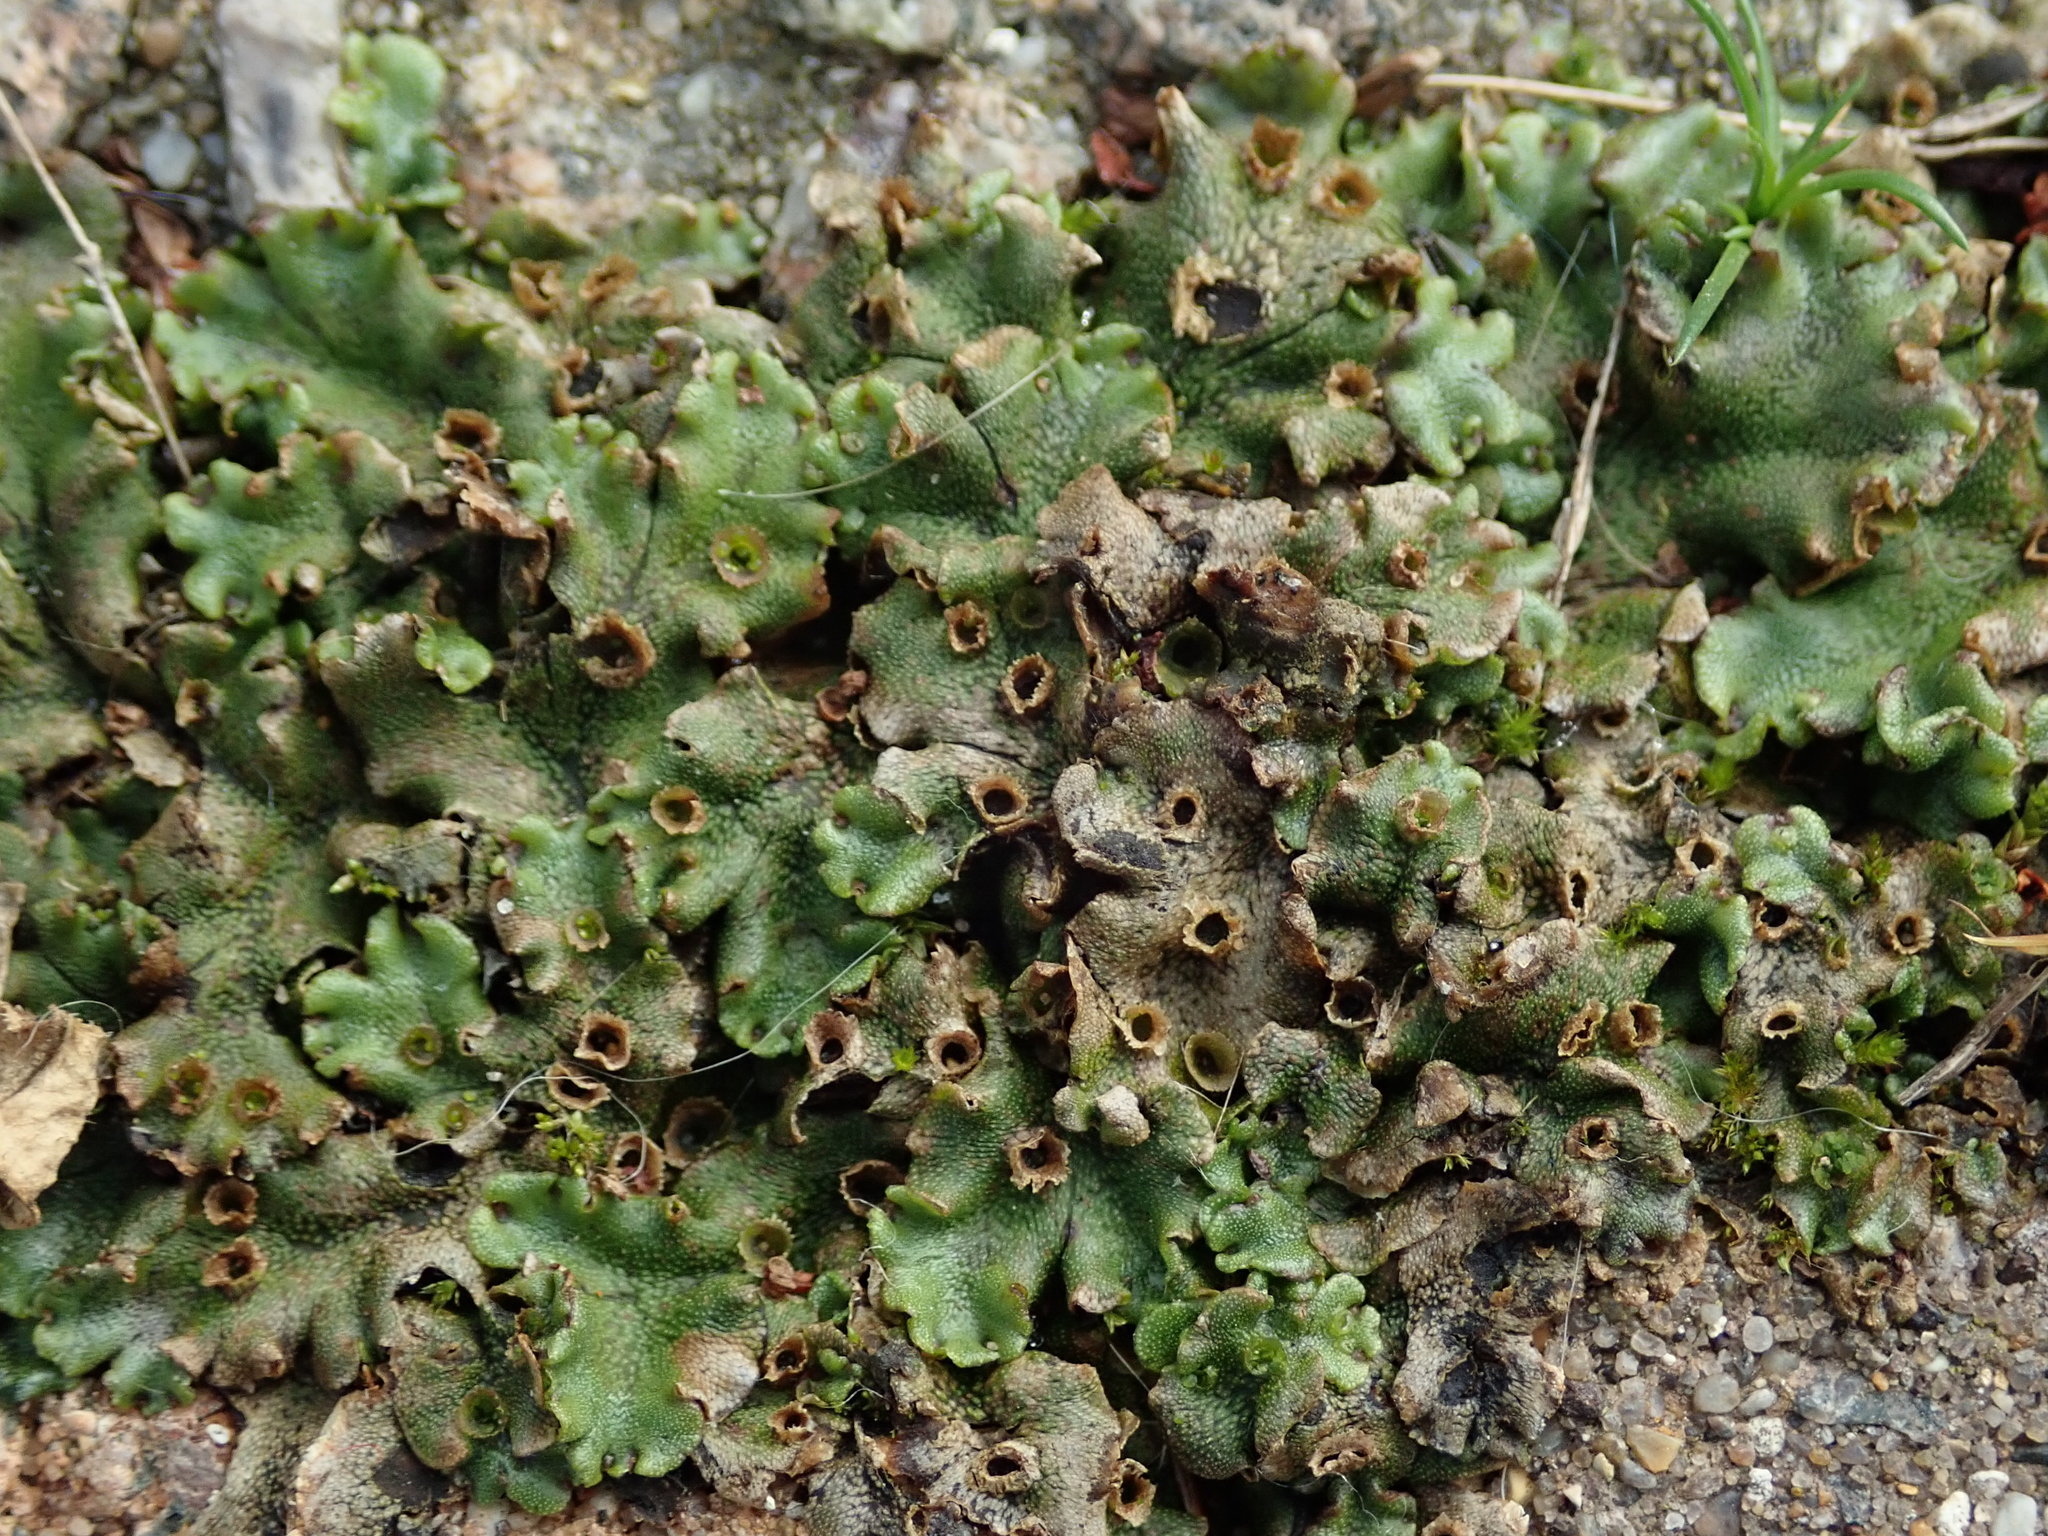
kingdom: Plantae
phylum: Marchantiophyta
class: Marchantiopsida
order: Marchantiales
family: Marchantiaceae
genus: Marchantia
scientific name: Marchantia polymorpha
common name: Common liverwort
